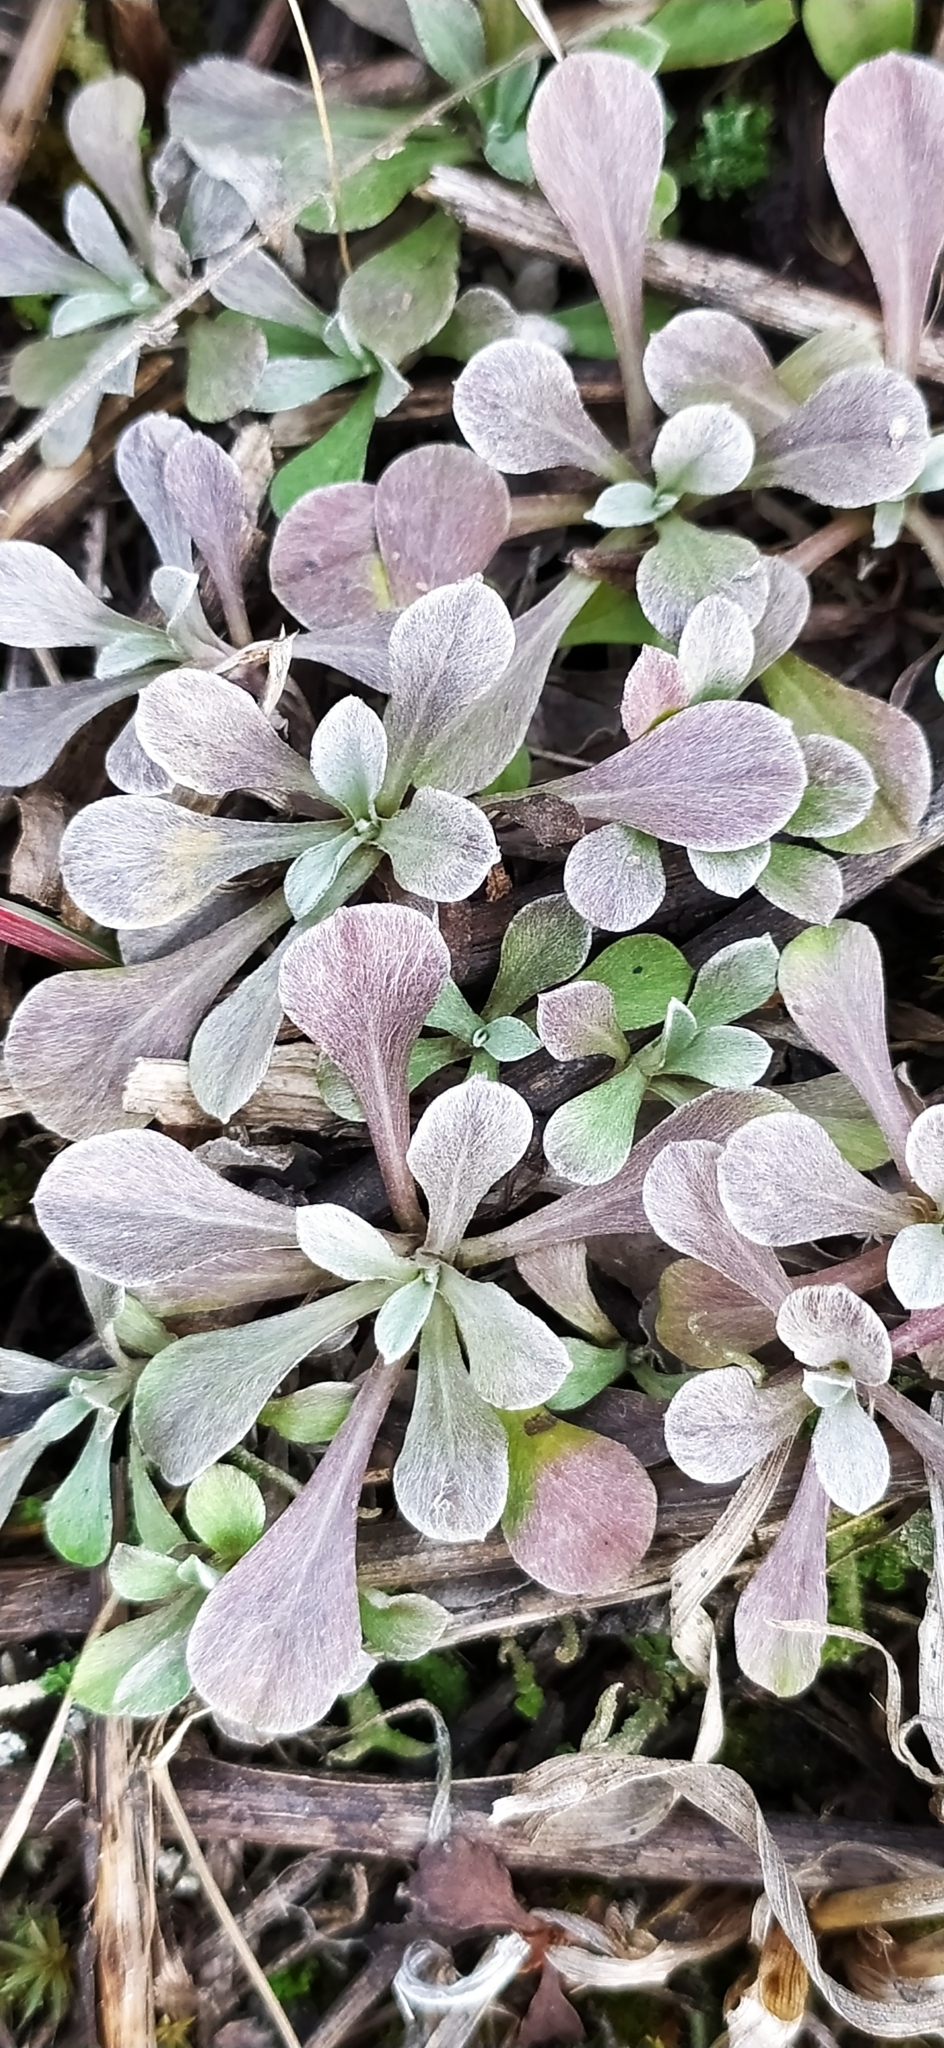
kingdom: Plantae
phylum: Tracheophyta
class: Magnoliopsida
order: Asterales
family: Asteraceae
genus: Antennaria
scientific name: Antennaria dioica
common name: Mountain everlasting
